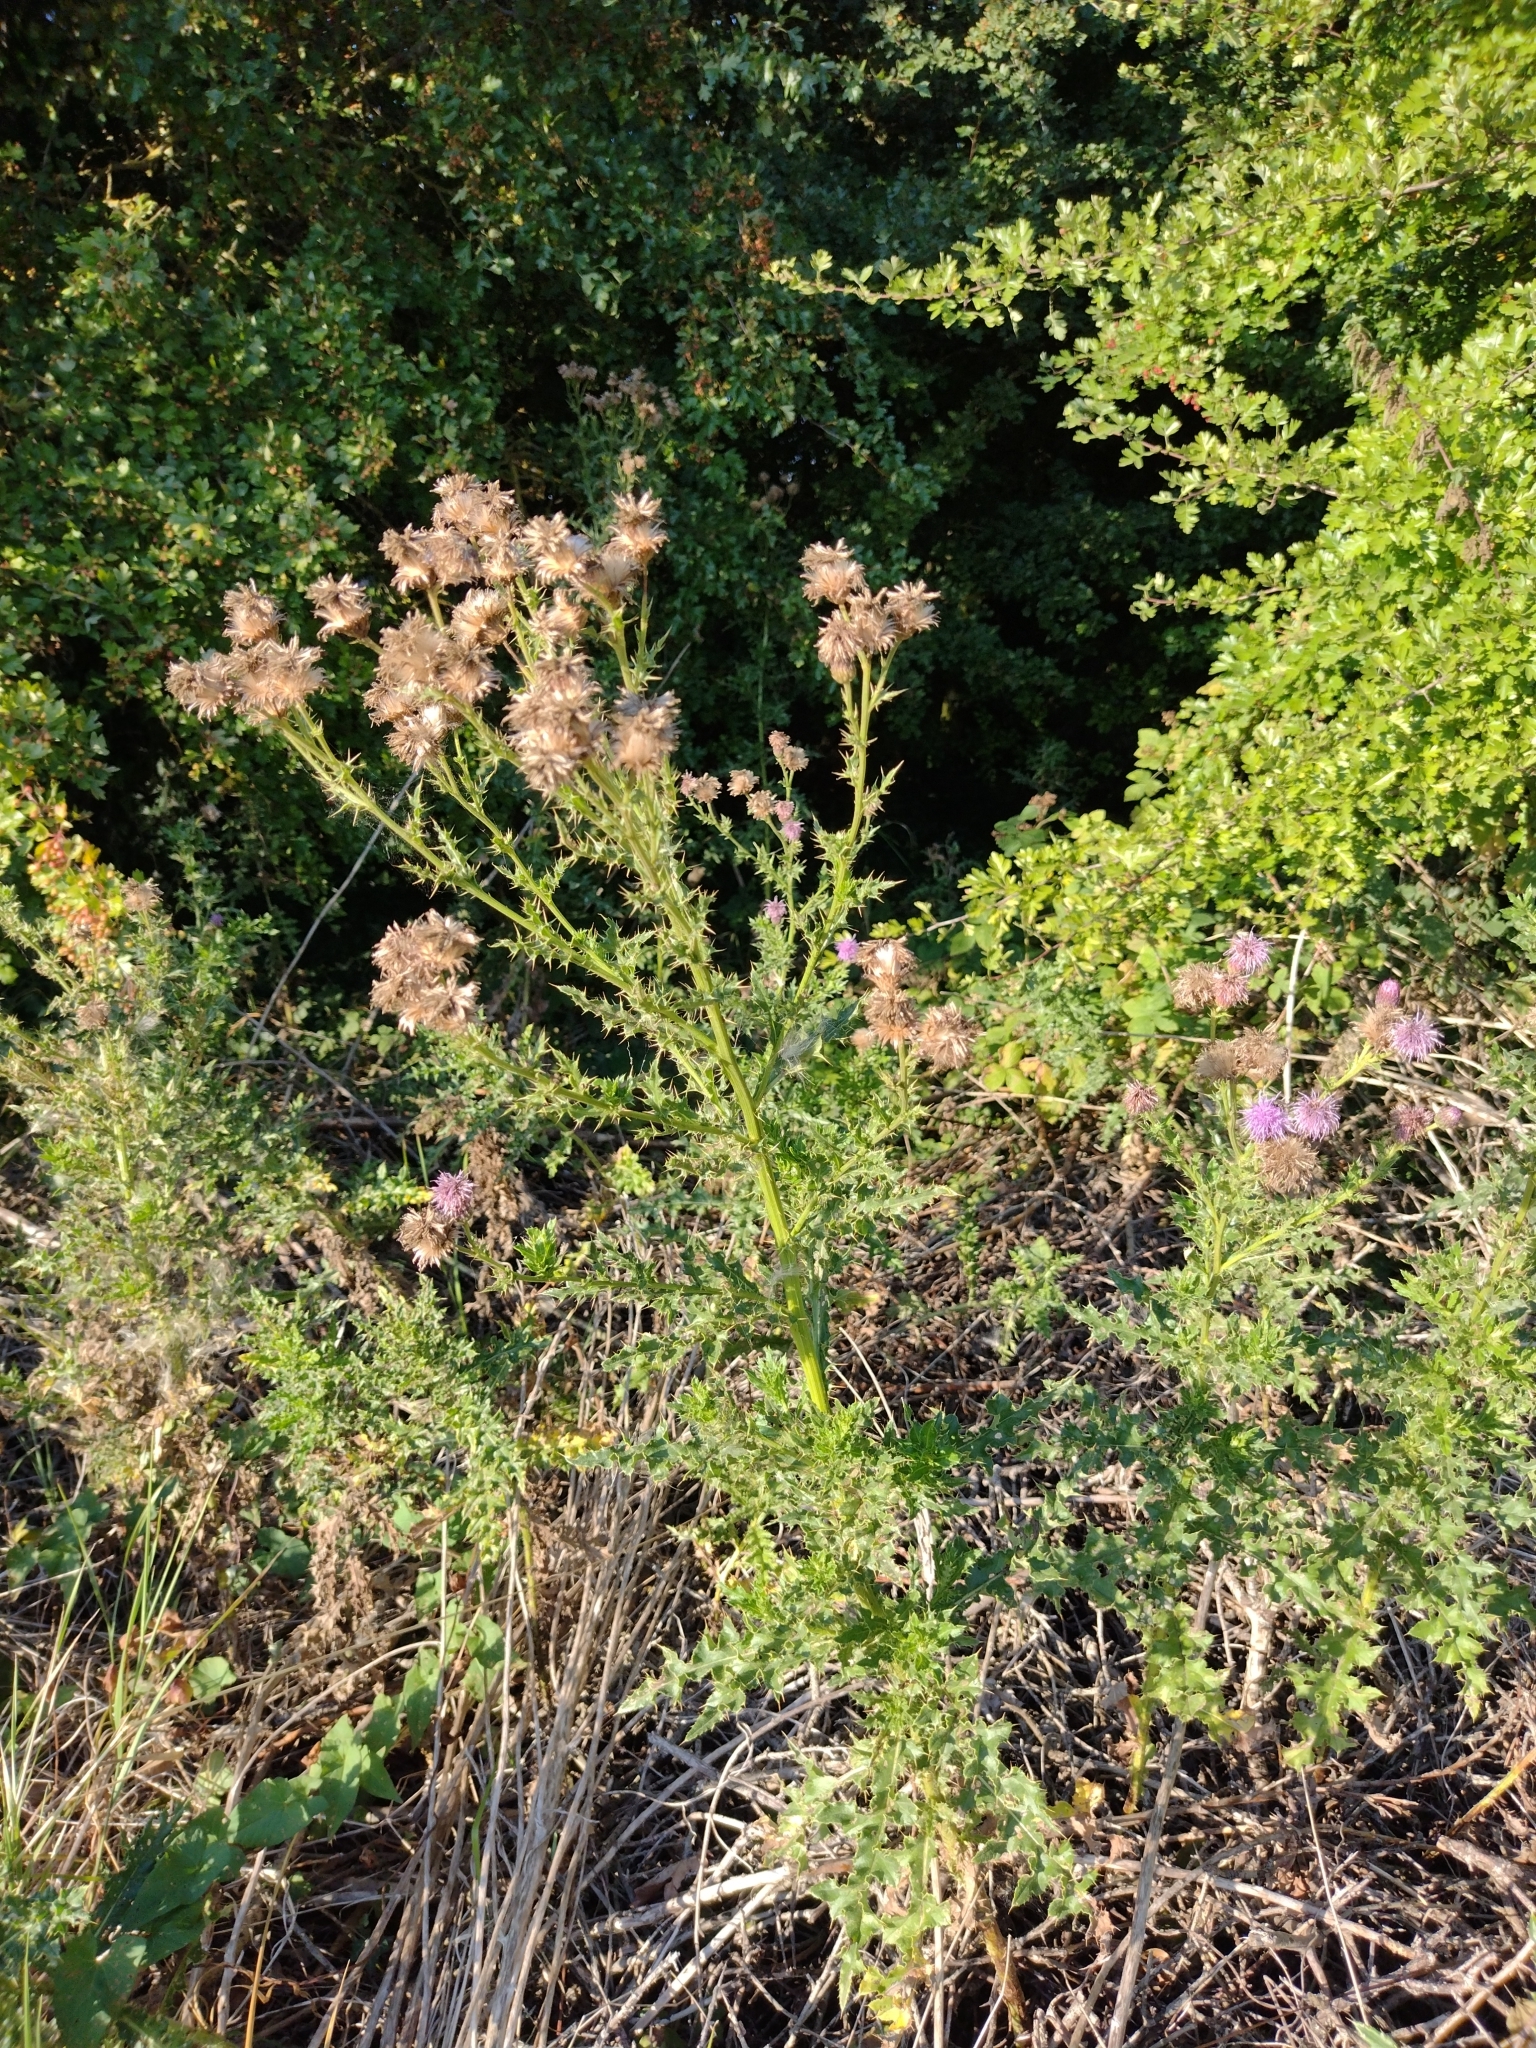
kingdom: Plantae
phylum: Tracheophyta
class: Magnoliopsida
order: Asterales
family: Asteraceae
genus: Cirsium
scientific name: Cirsium arvense
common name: Creeping thistle
